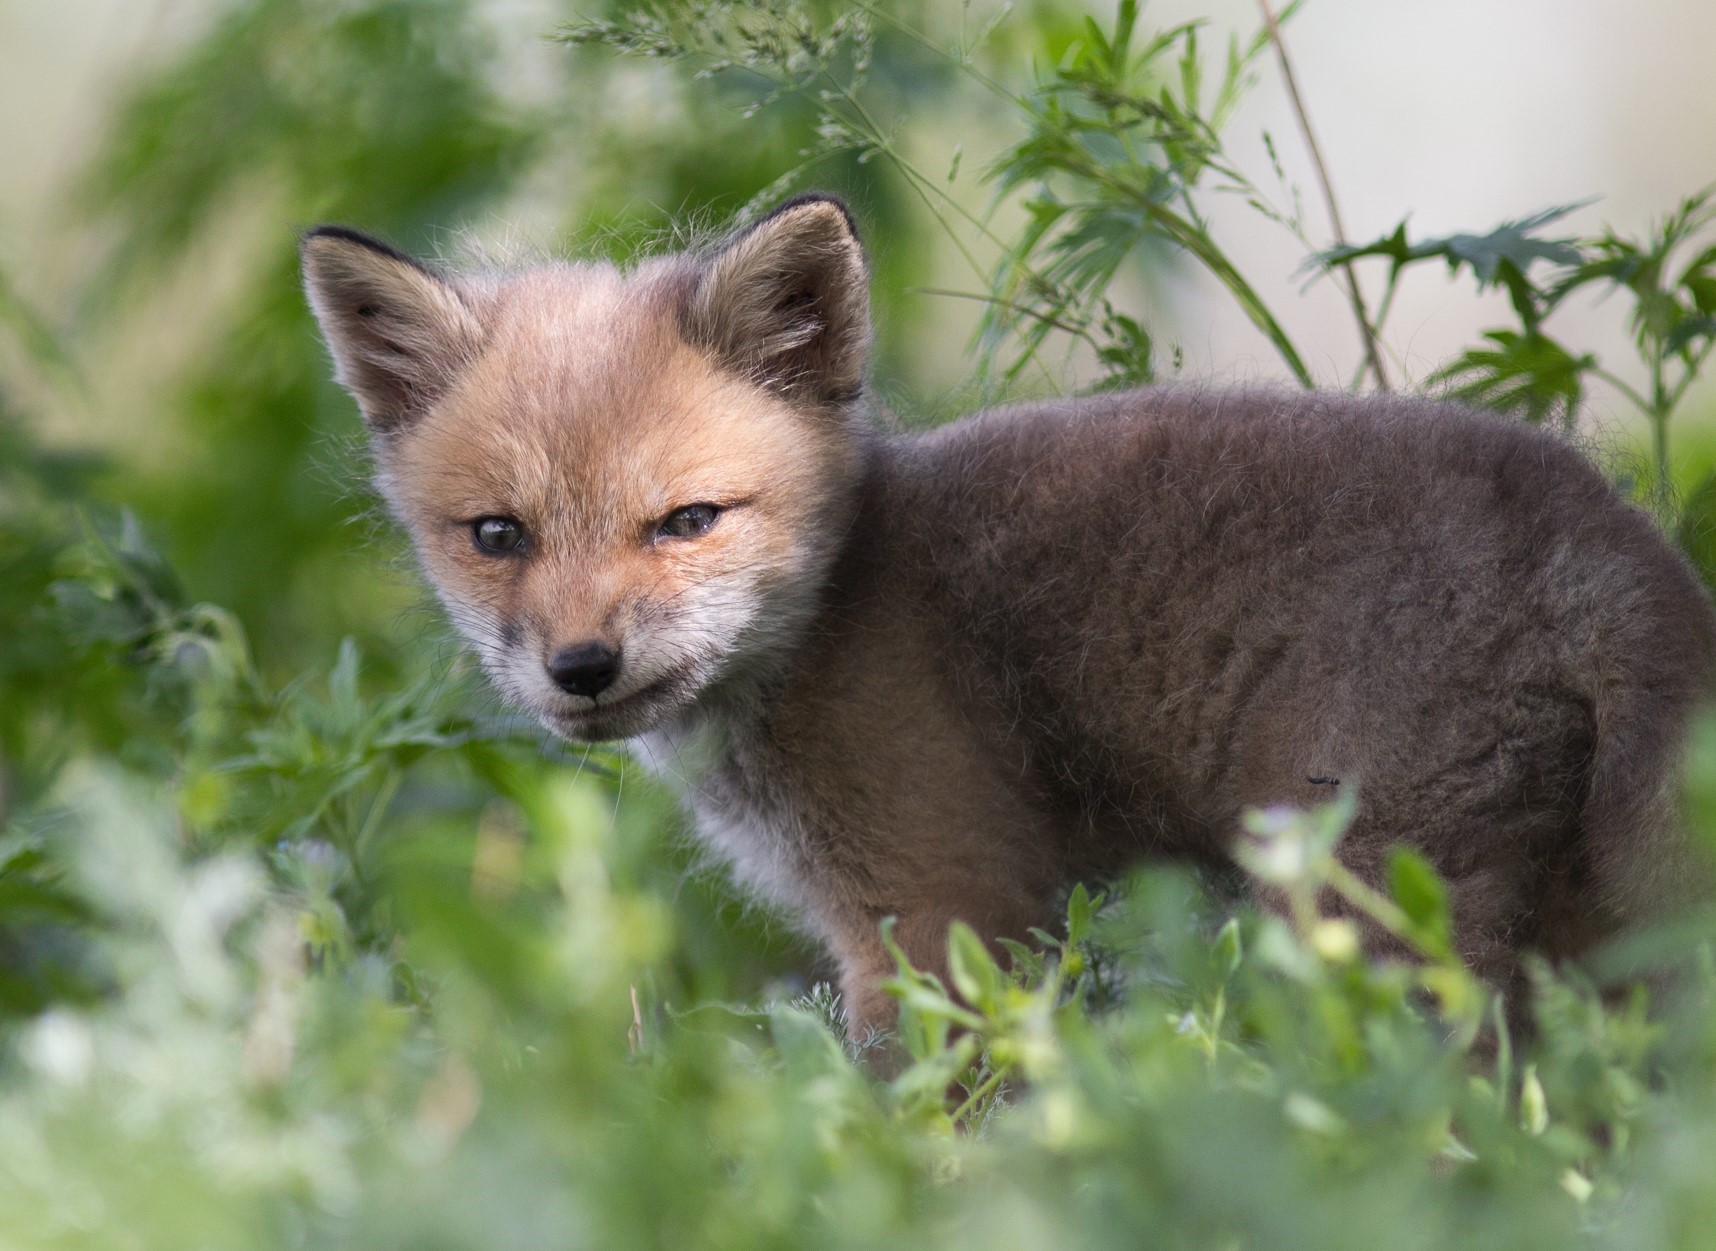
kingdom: Animalia
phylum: Chordata
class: Mammalia
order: Carnivora
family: Canidae
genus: Vulpes
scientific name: Vulpes vulpes
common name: Red fox
